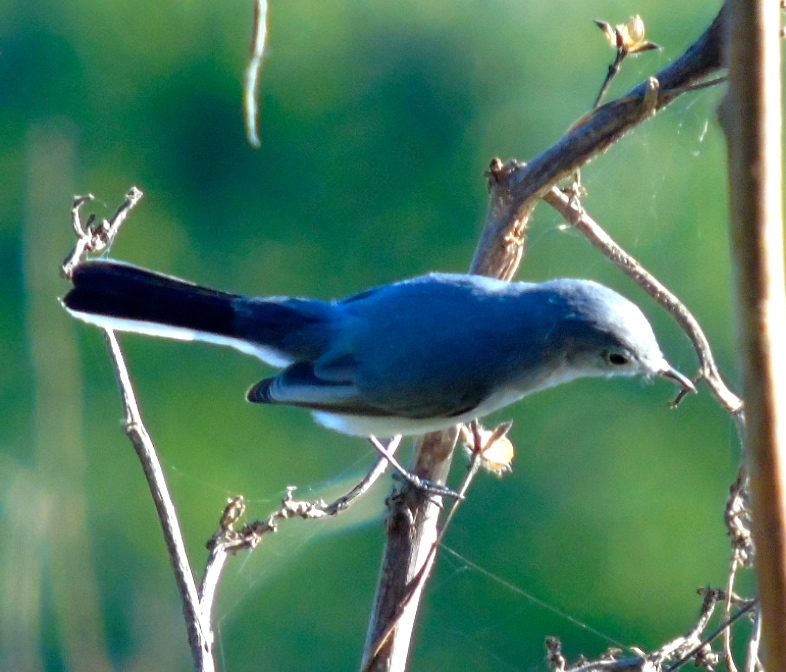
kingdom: Animalia
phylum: Chordata
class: Aves
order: Passeriformes
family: Polioptilidae
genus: Polioptila
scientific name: Polioptila caerulea
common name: Blue-gray gnatcatcher
